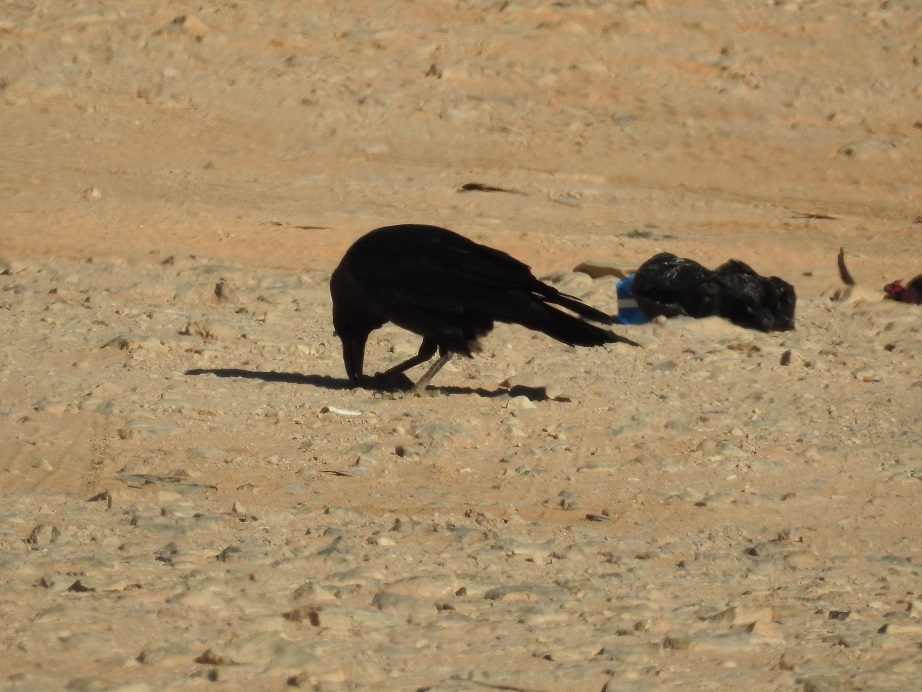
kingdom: Animalia
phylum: Chordata
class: Aves
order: Passeriformes
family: Corvidae
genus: Corvus
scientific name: Corvus ruficollis
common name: Brown-necked raven
